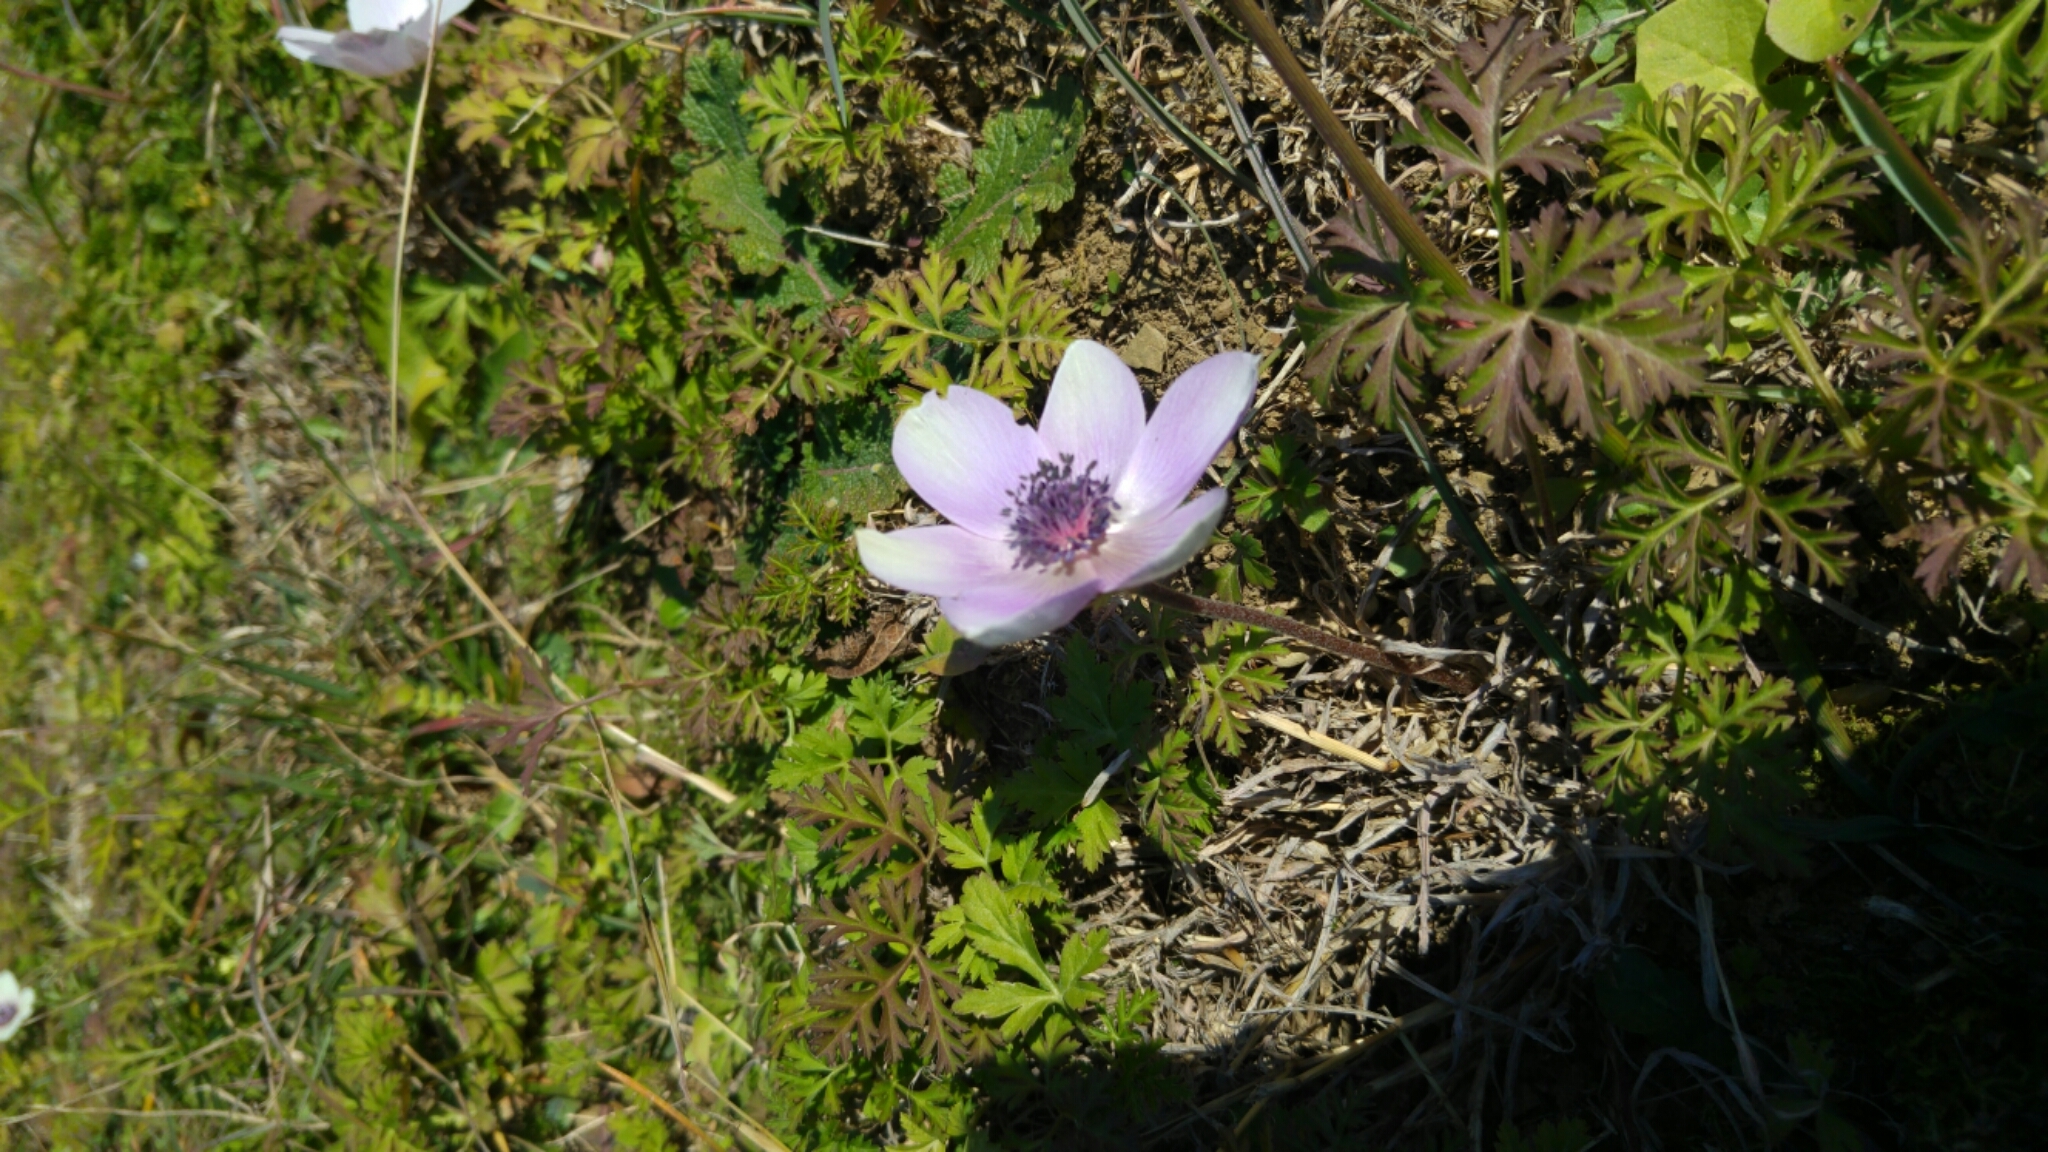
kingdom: Plantae
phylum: Tracheophyta
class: Magnoliopsida
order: Ranunculales
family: Ranunculaceae
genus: Anemone
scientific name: Anemone coronaria
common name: Poppy anemone
